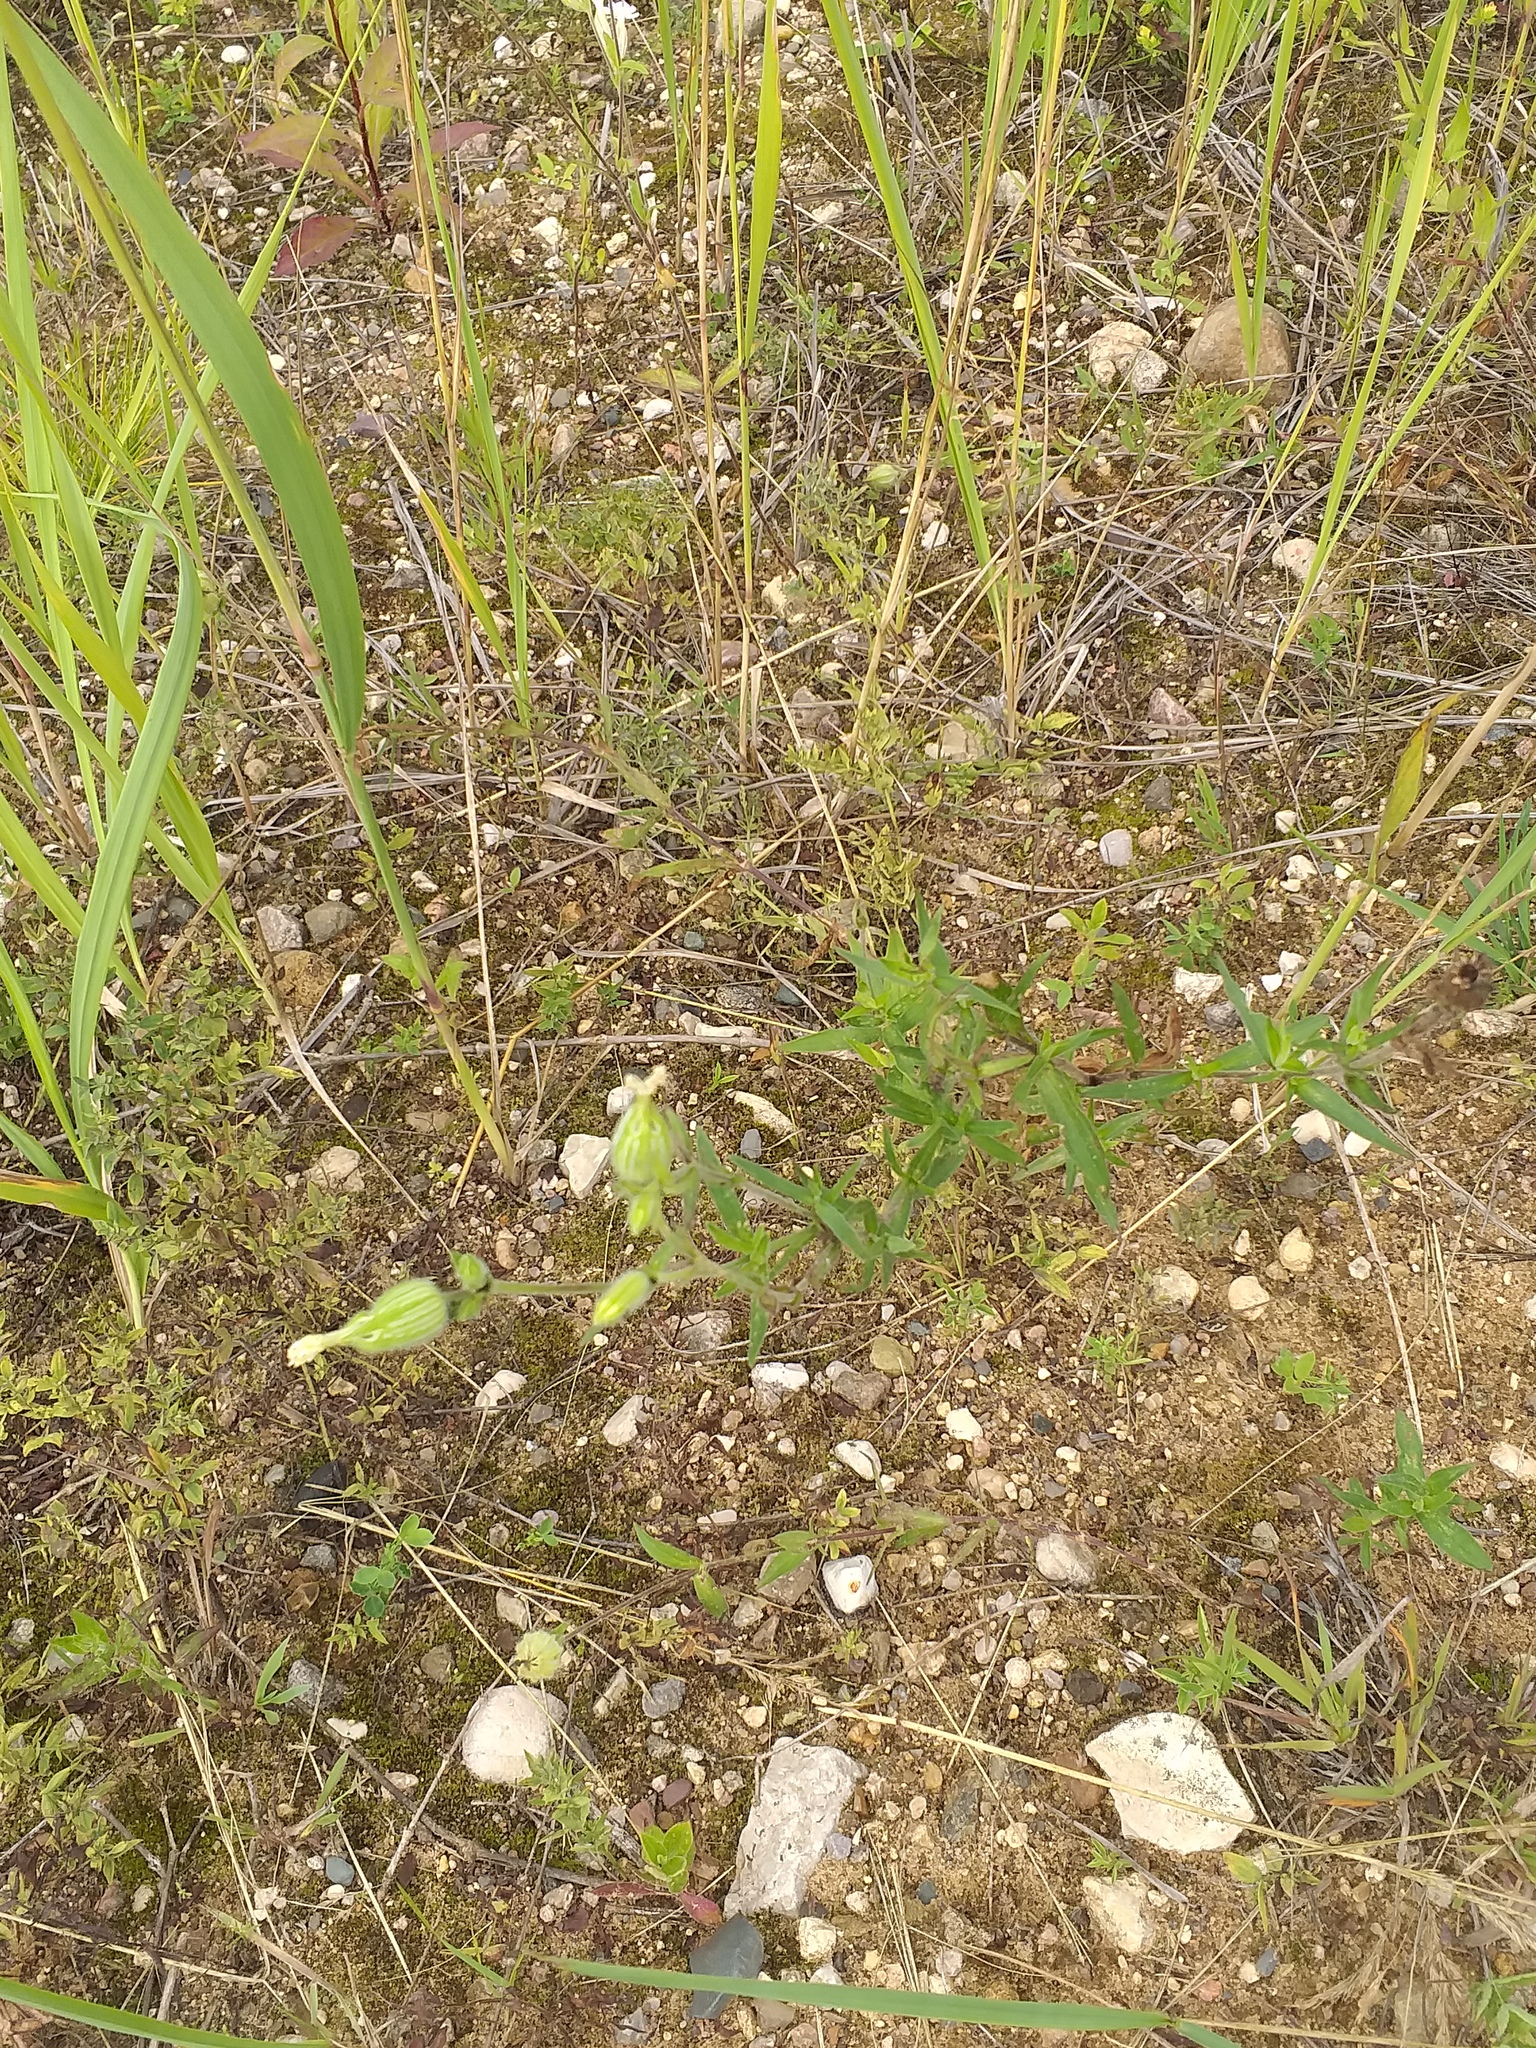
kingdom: Plantae
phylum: Tracheophyta
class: Magnoliopsida
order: Caryophyllales
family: Caryophyllaceae
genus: Silene
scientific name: Silene latifolia
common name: White campion
